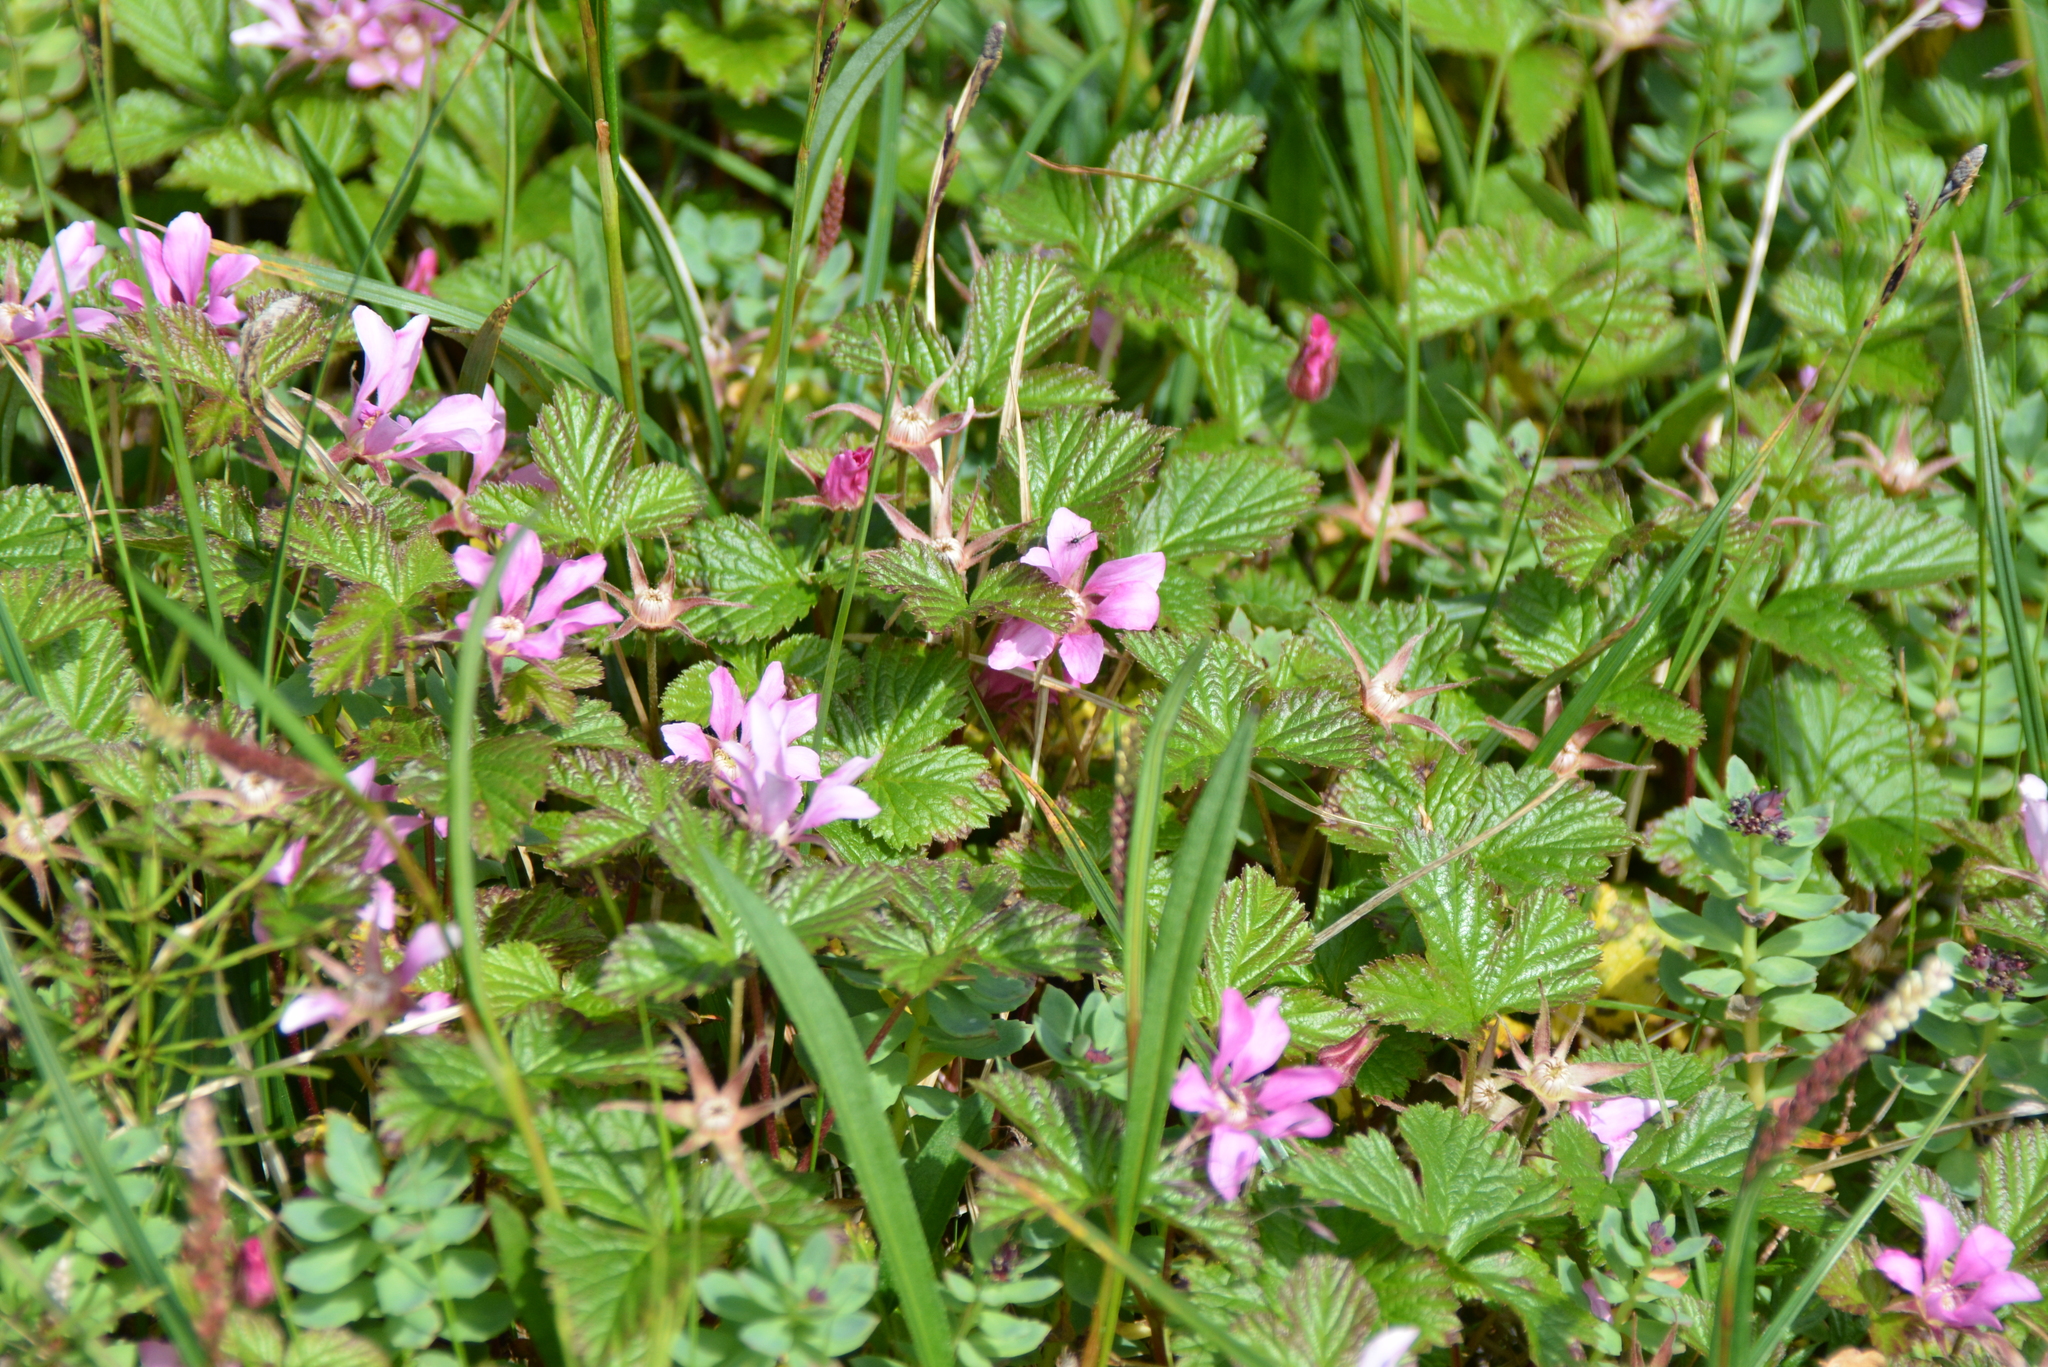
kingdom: Plantae
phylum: Tracheophyta
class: Magnoliopsida
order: Rosales
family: Rosaceae
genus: Rubus
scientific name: Rubus arcticus
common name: Arctic bramble
